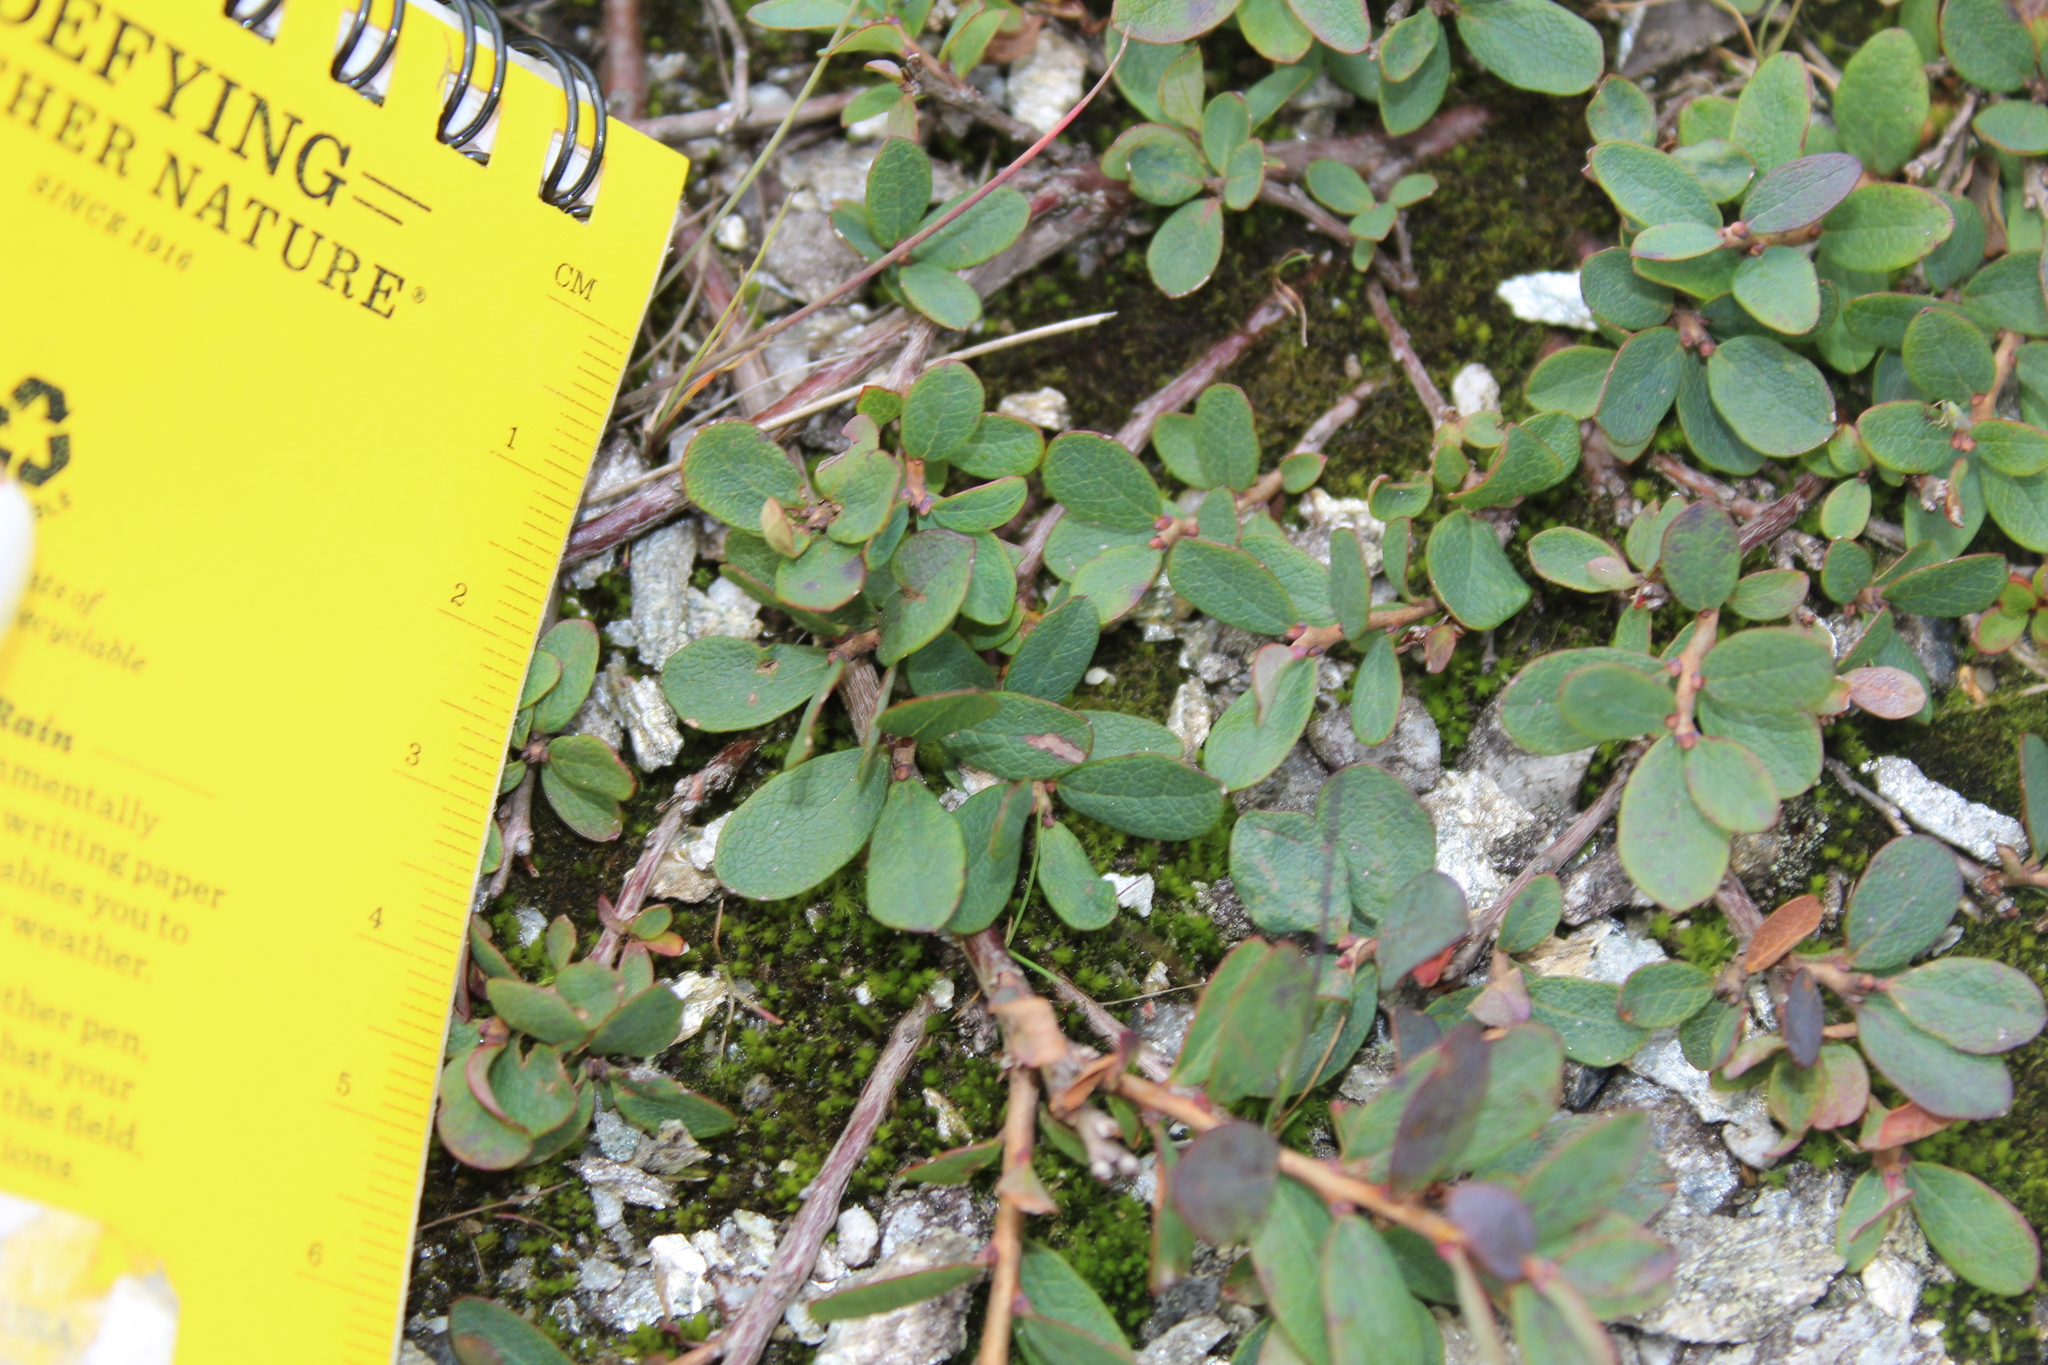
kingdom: Plantae
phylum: Tracheophyta
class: Magnoliopsida
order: Ericales
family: Ericaceae
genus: Vaccinium
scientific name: Vaccinium uliginosum
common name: Bog bilberry
